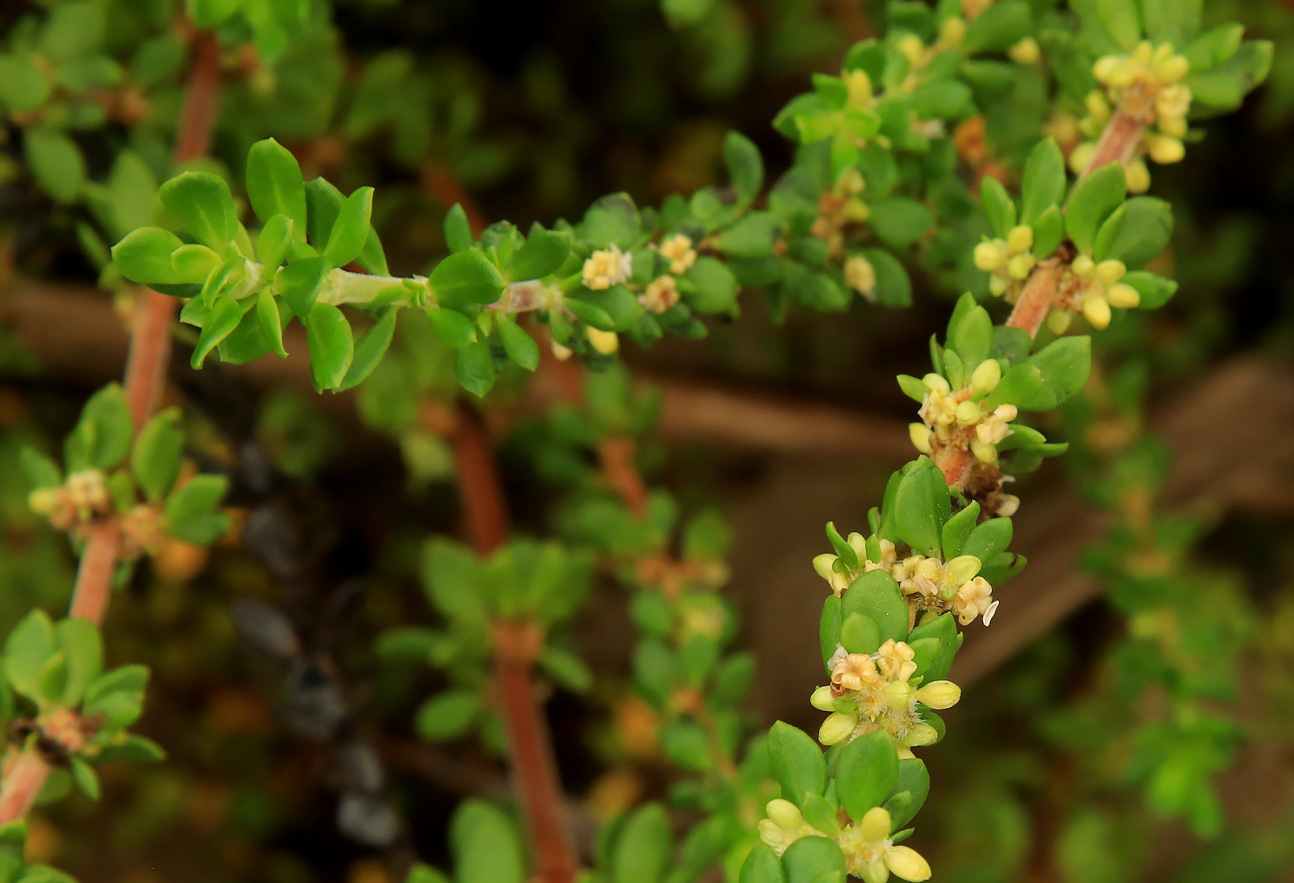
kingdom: Plantae
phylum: Tracheophyta
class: Magnoliopsida
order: Gentianales
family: Rubiaceae
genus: Anthospermum
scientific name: Anthospermum littoreum
